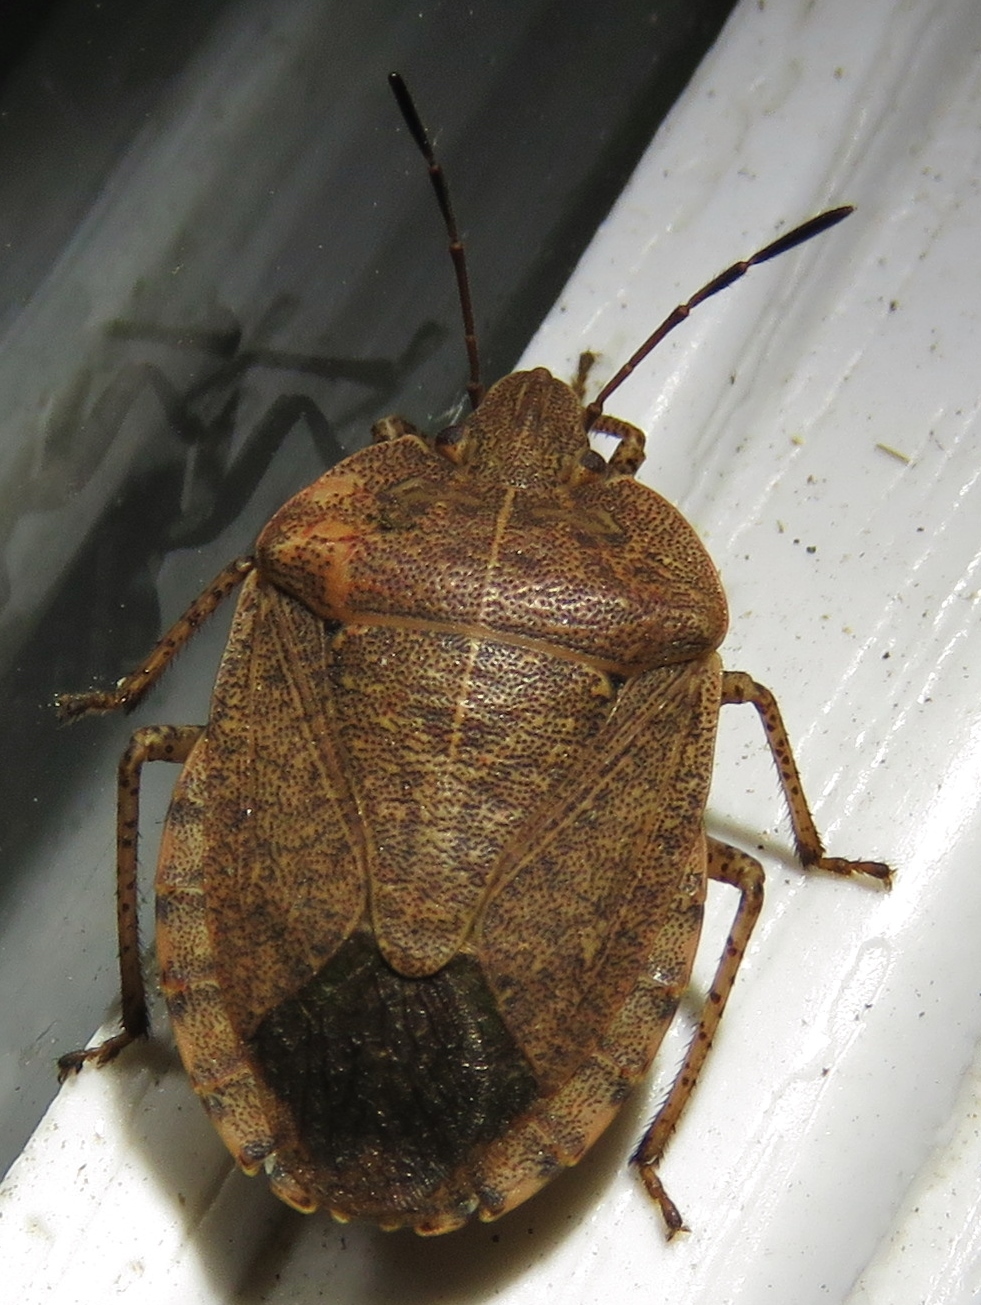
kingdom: Animalia
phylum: Arthropoda
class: Insecta
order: Hemiptera
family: Pentatomidae
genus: Menecles
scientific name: Menecles insertus
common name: Elf shoe stink bug
